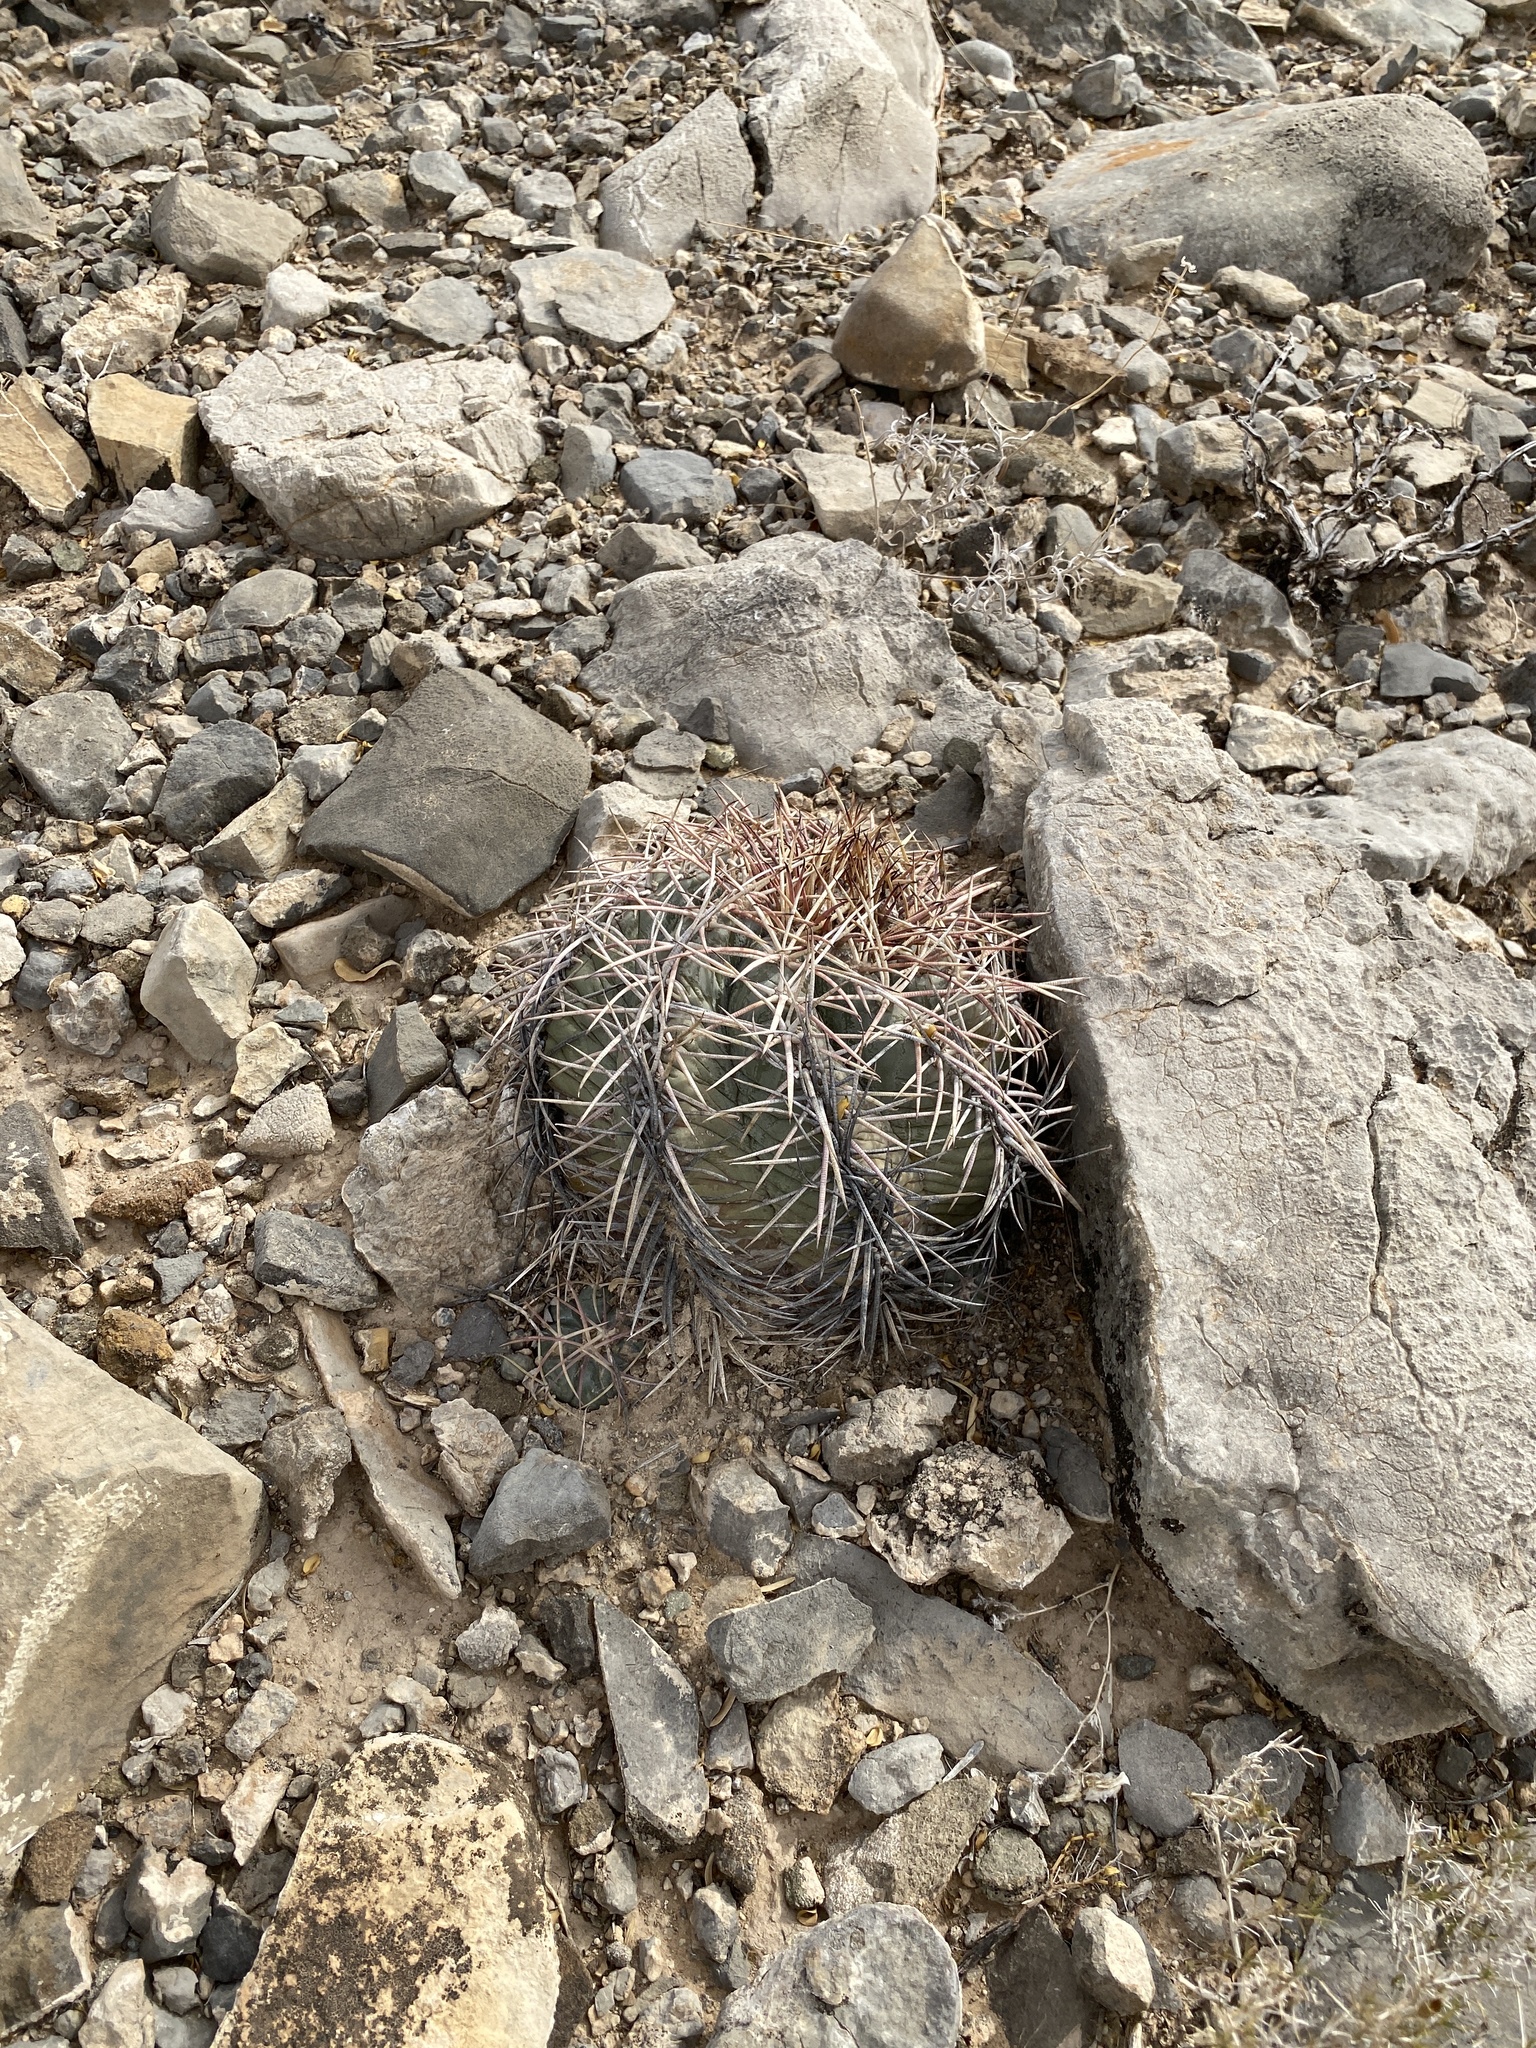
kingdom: Plantae
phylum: Tracheophyta
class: Magnoliopsida
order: Caryophyllales
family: Cactaceae
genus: Echinocactus
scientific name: Echinocactus horizonthalonius
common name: Devilshead
